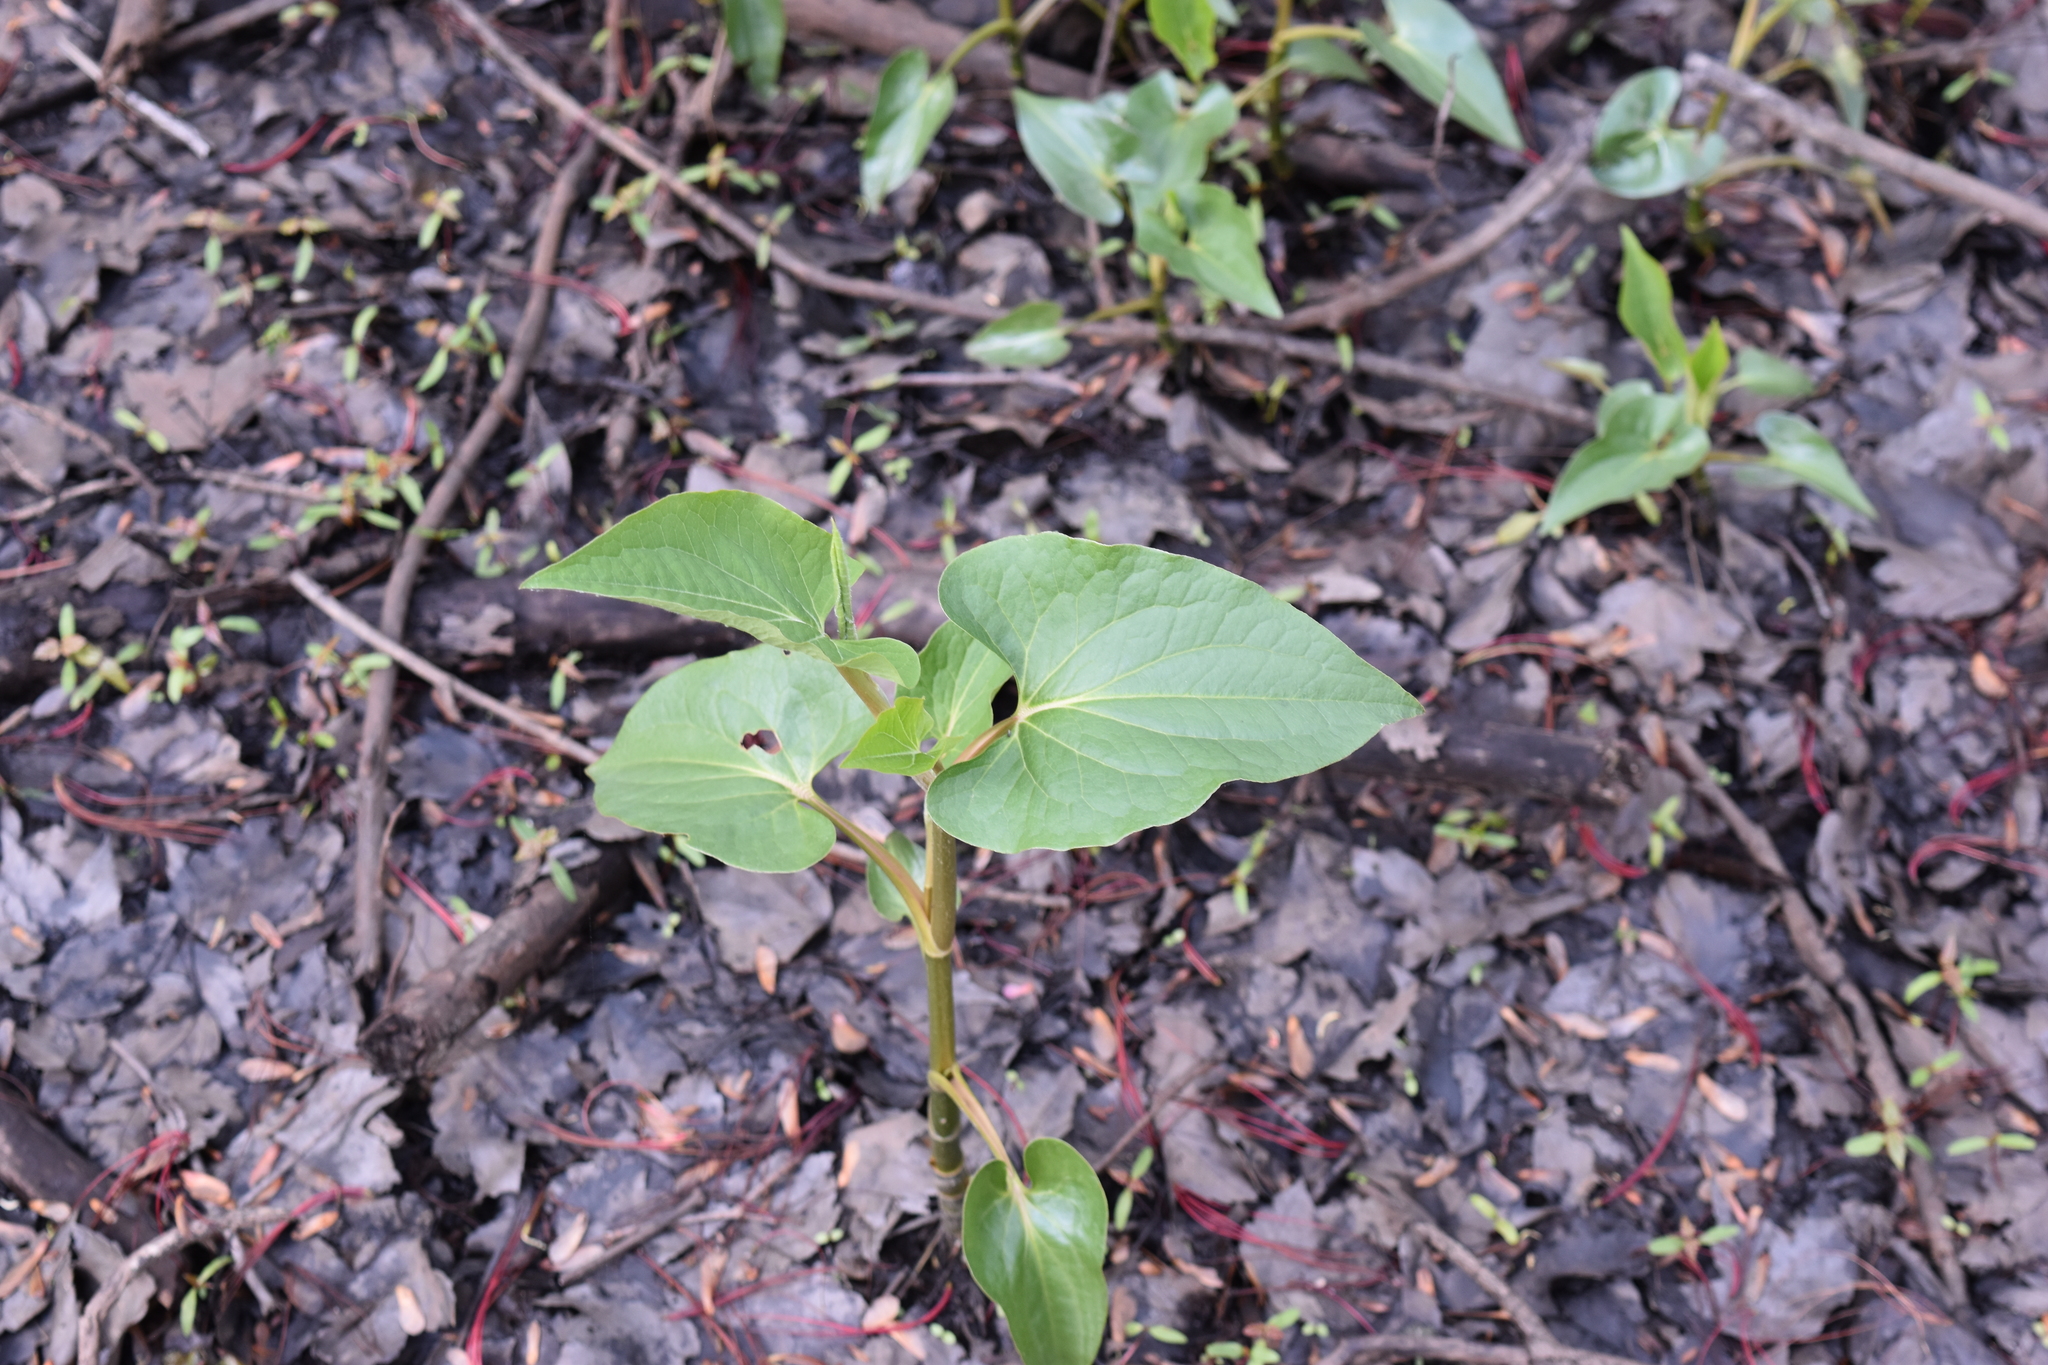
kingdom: Plantae
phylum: Tracheophyta
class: Magnoliopsida
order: Piperales
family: Saururaceae
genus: Saururus
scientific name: Saururus cernuus
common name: Lizard's-tail
